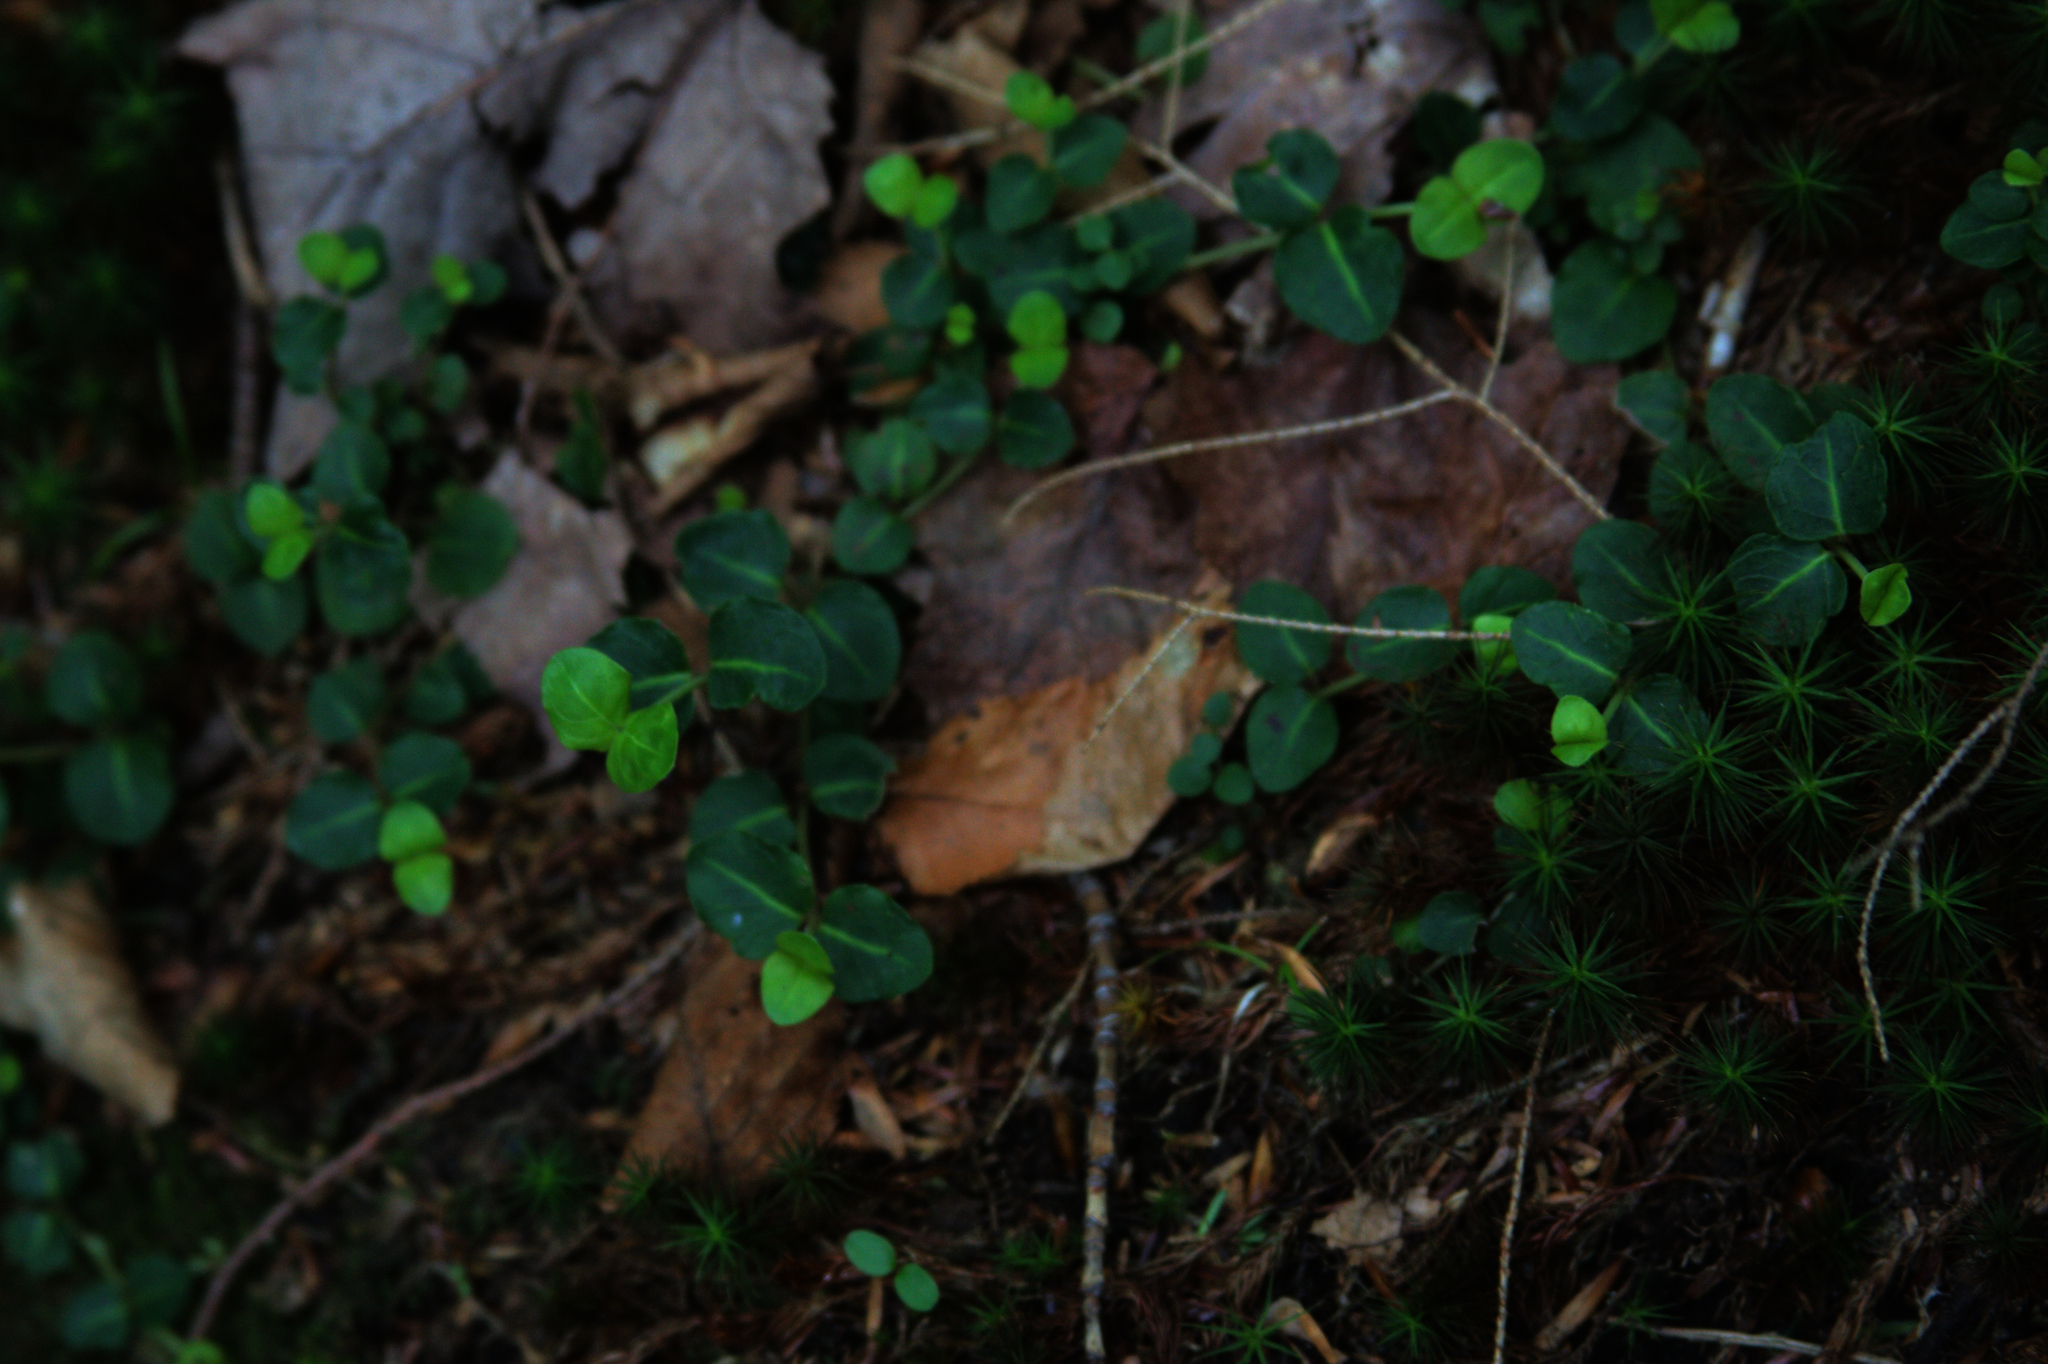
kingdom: Plantae
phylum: Tracheophyta
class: Magnoliopsida
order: Gentianales
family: Rubiaceae
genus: Mitchella
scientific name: Mitchella repens
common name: Partridge-berry
